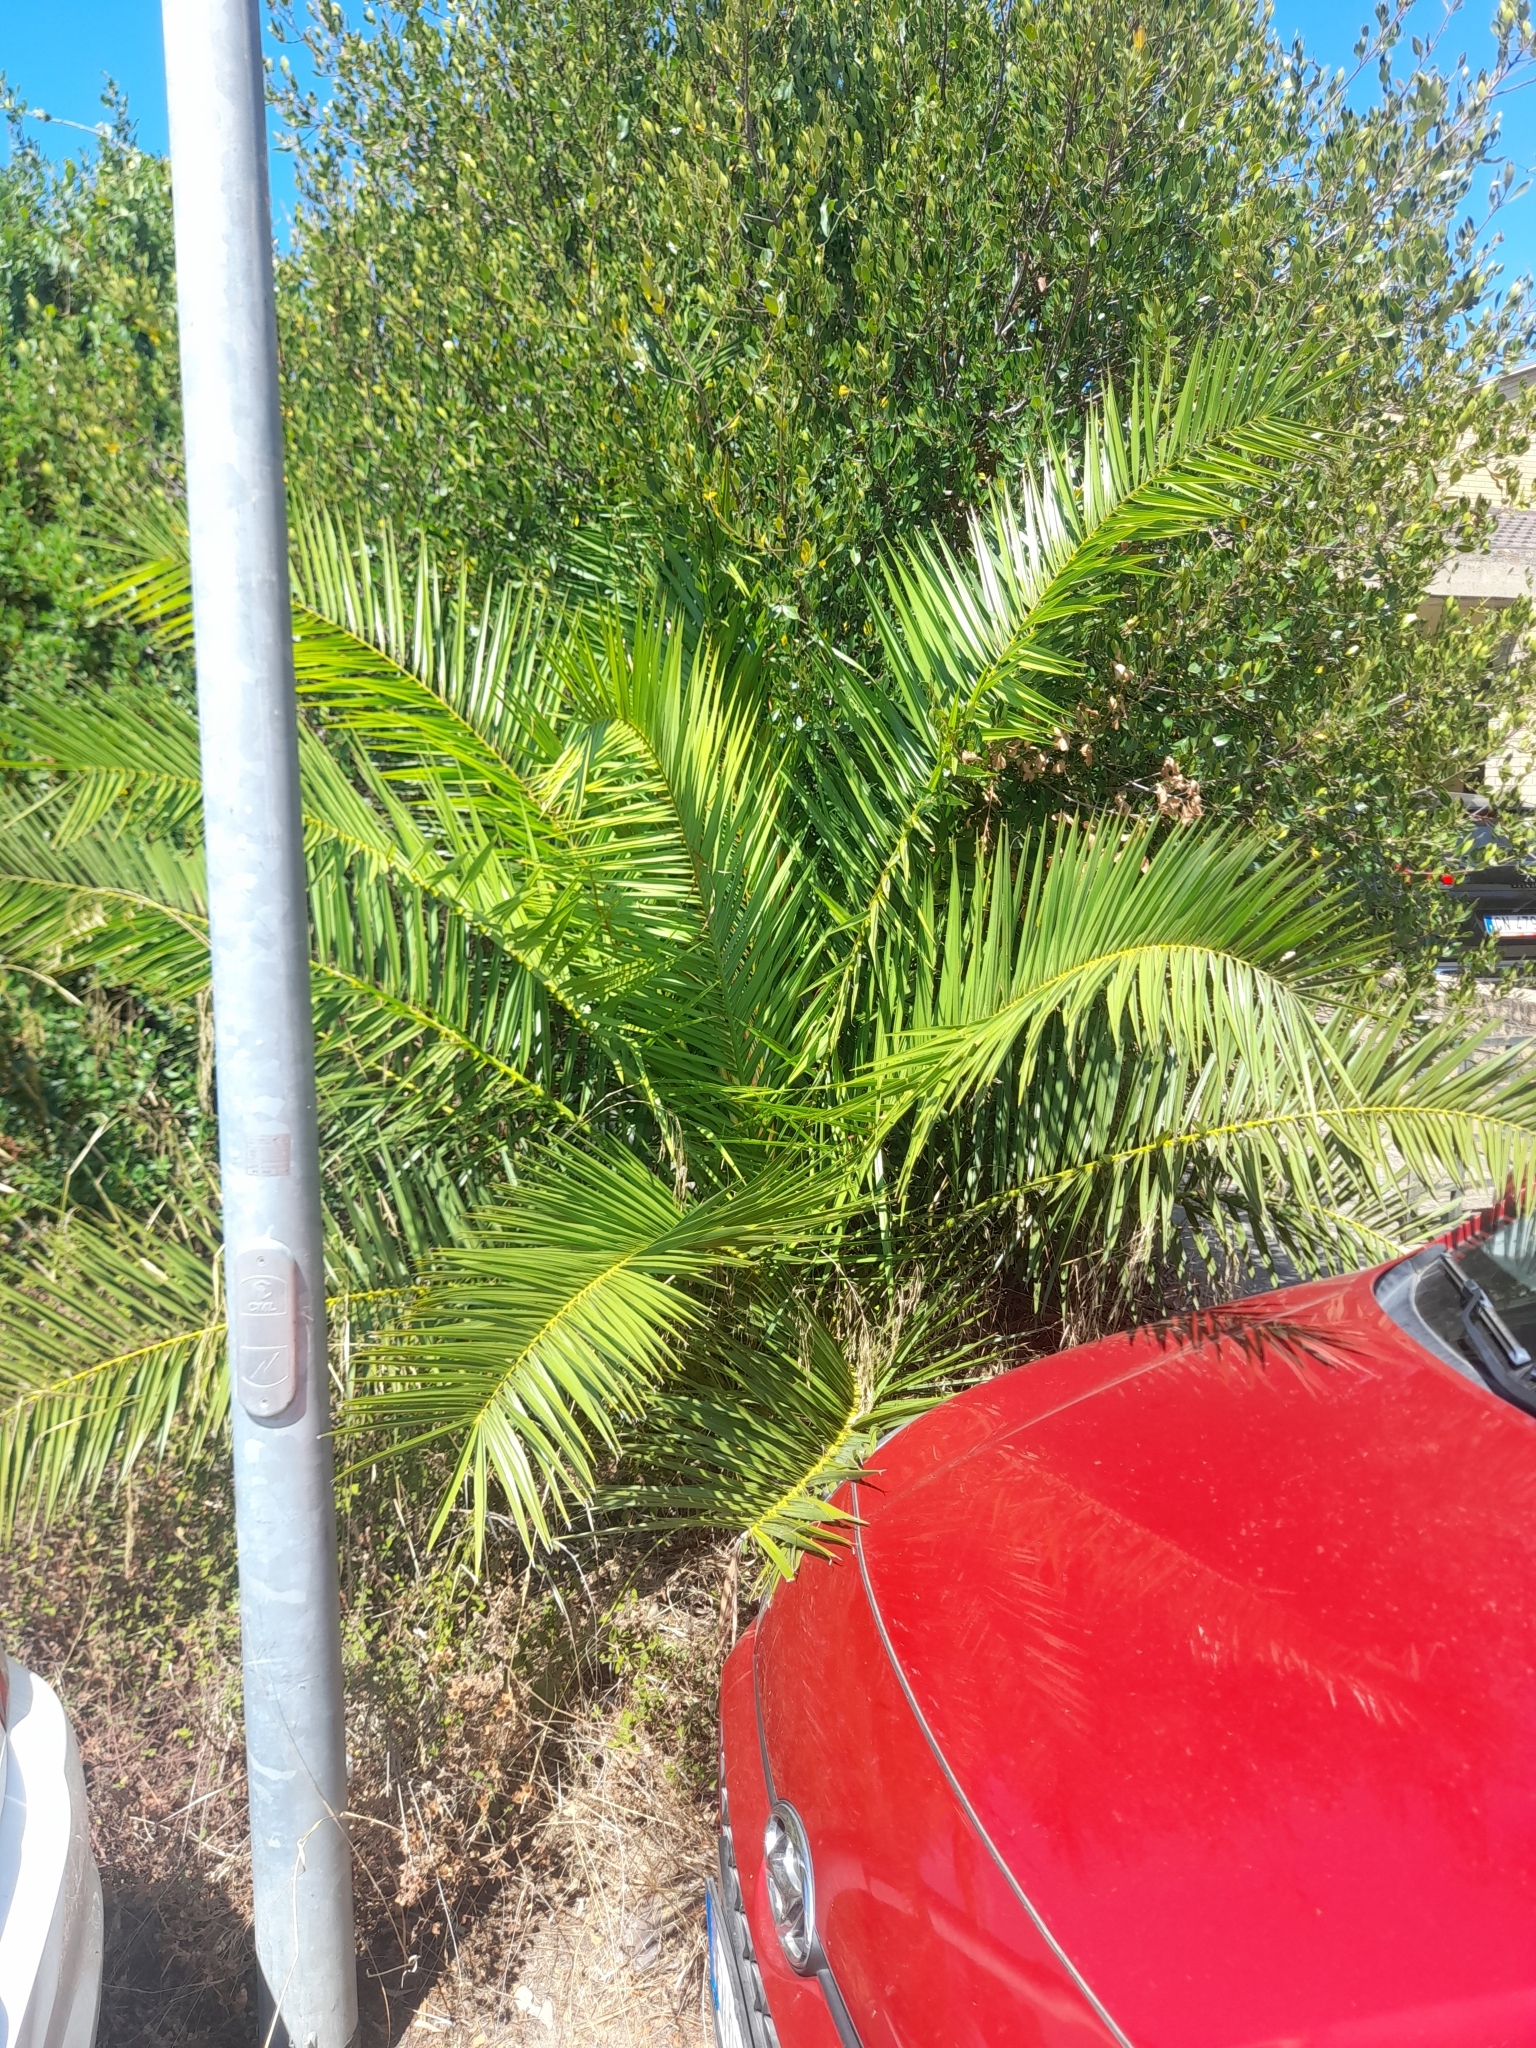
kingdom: Plantae
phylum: Tracheophyta
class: Liliopsida
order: Arecales
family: Arecaceae
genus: Phoenix
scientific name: Phoenix canariensis
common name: Canary island date palm
